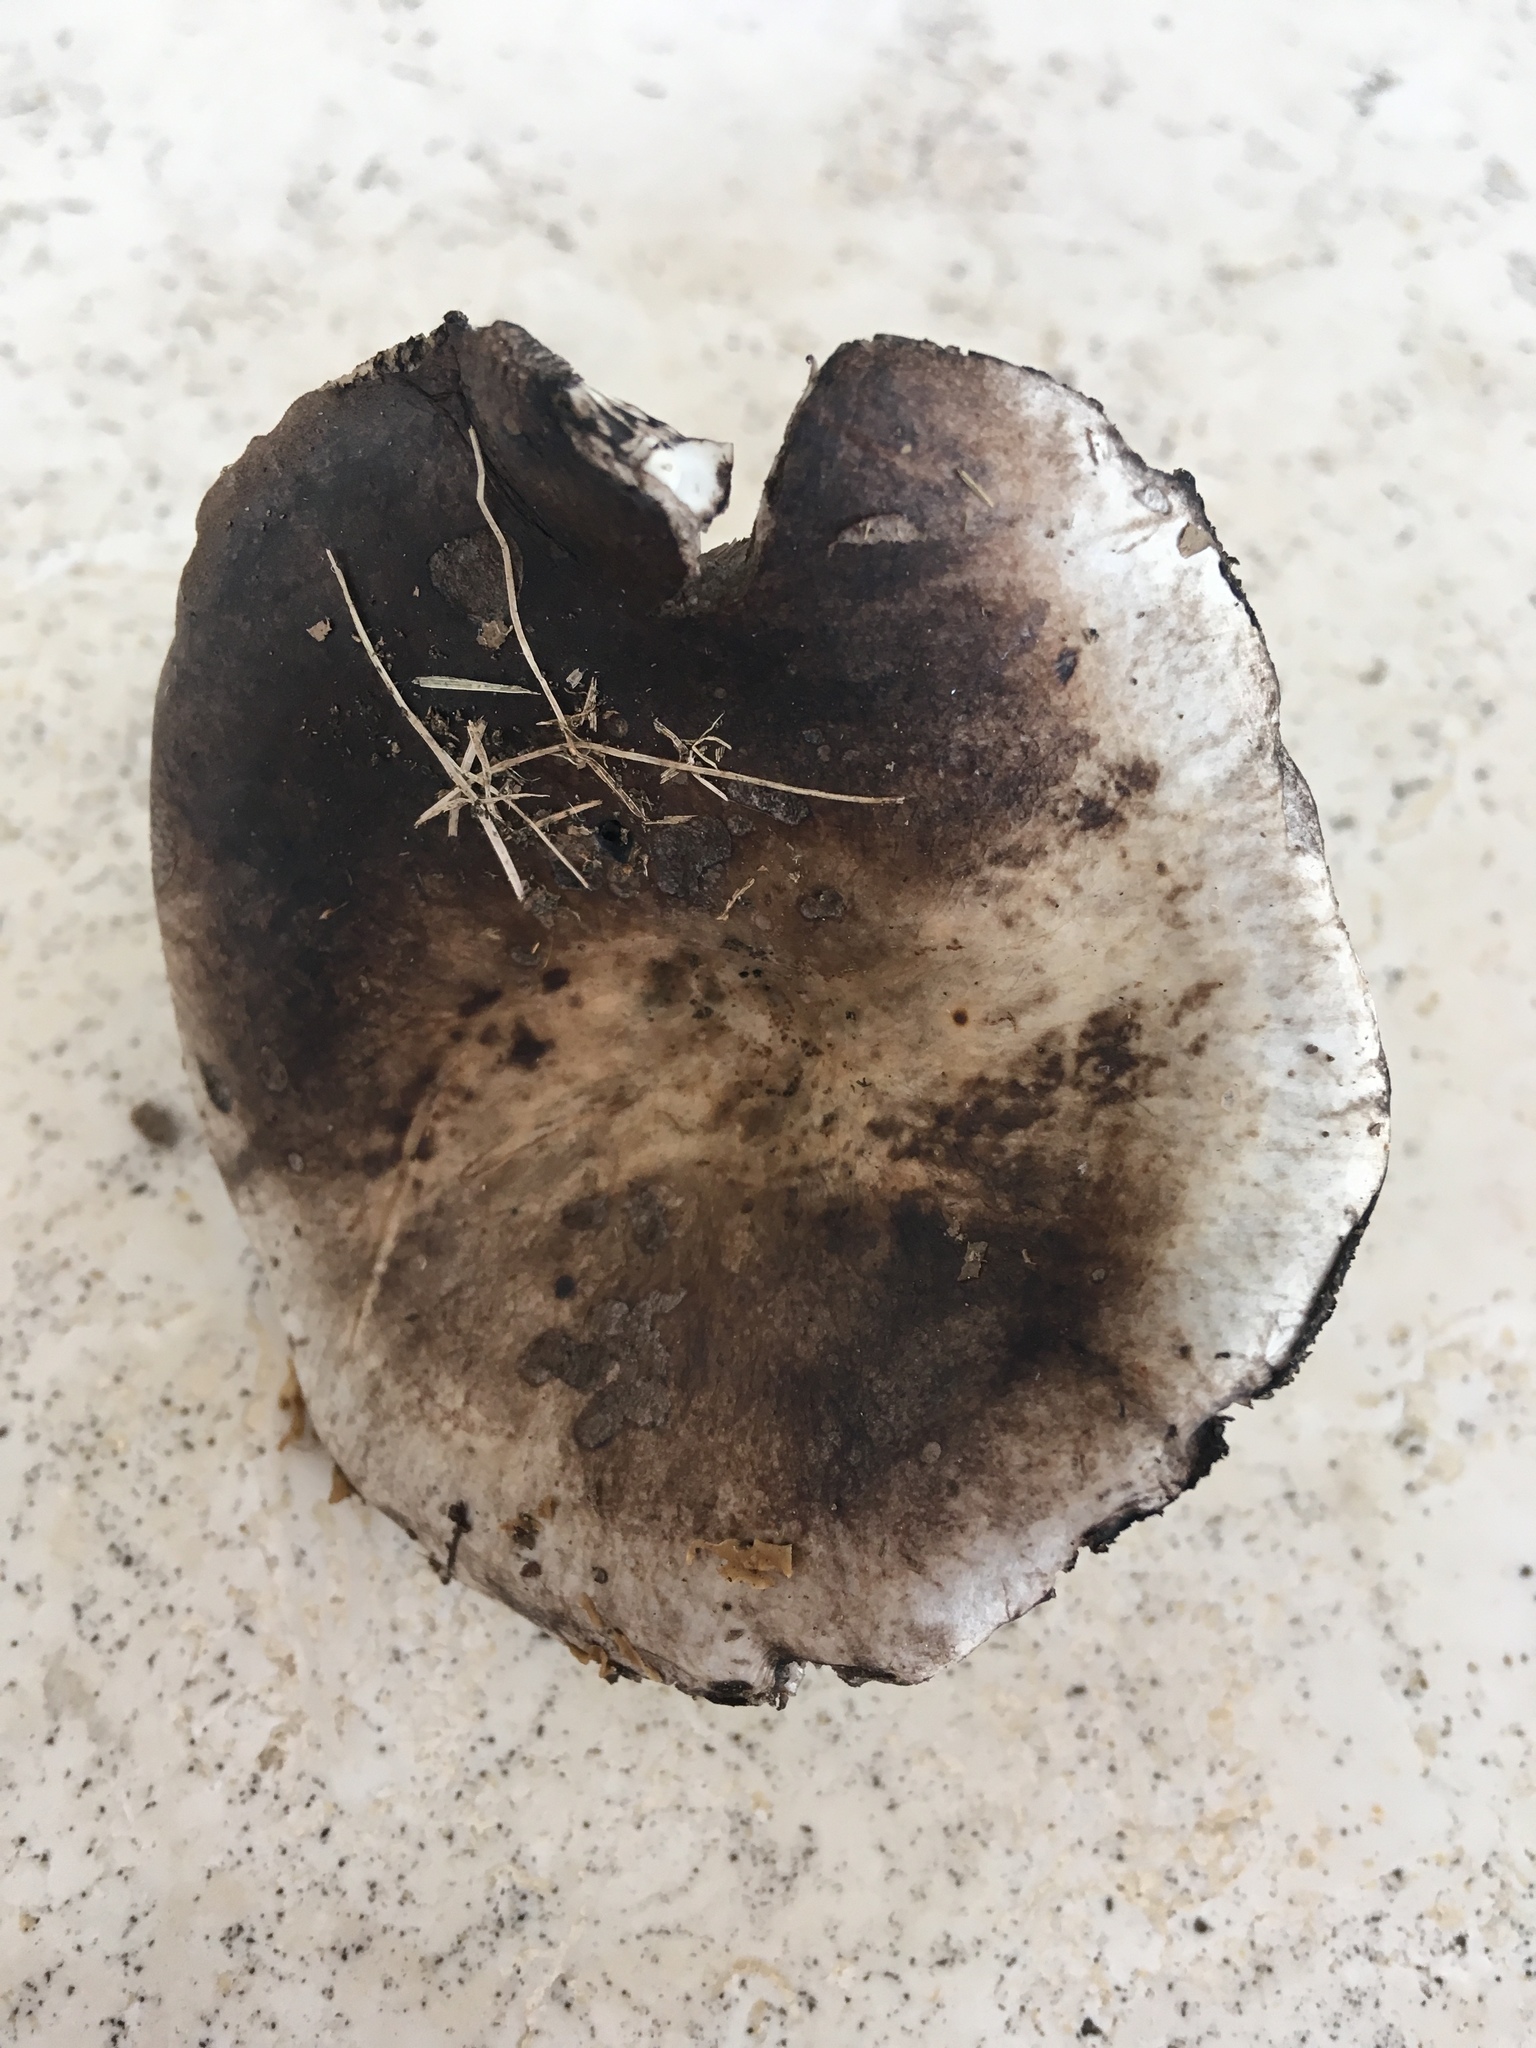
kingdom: Fungi
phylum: Basidiomycota
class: Agaricomycetes
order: Russulales
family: Russulaceae
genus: Russula
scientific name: Russula albonigra
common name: Menthol brittlegill
